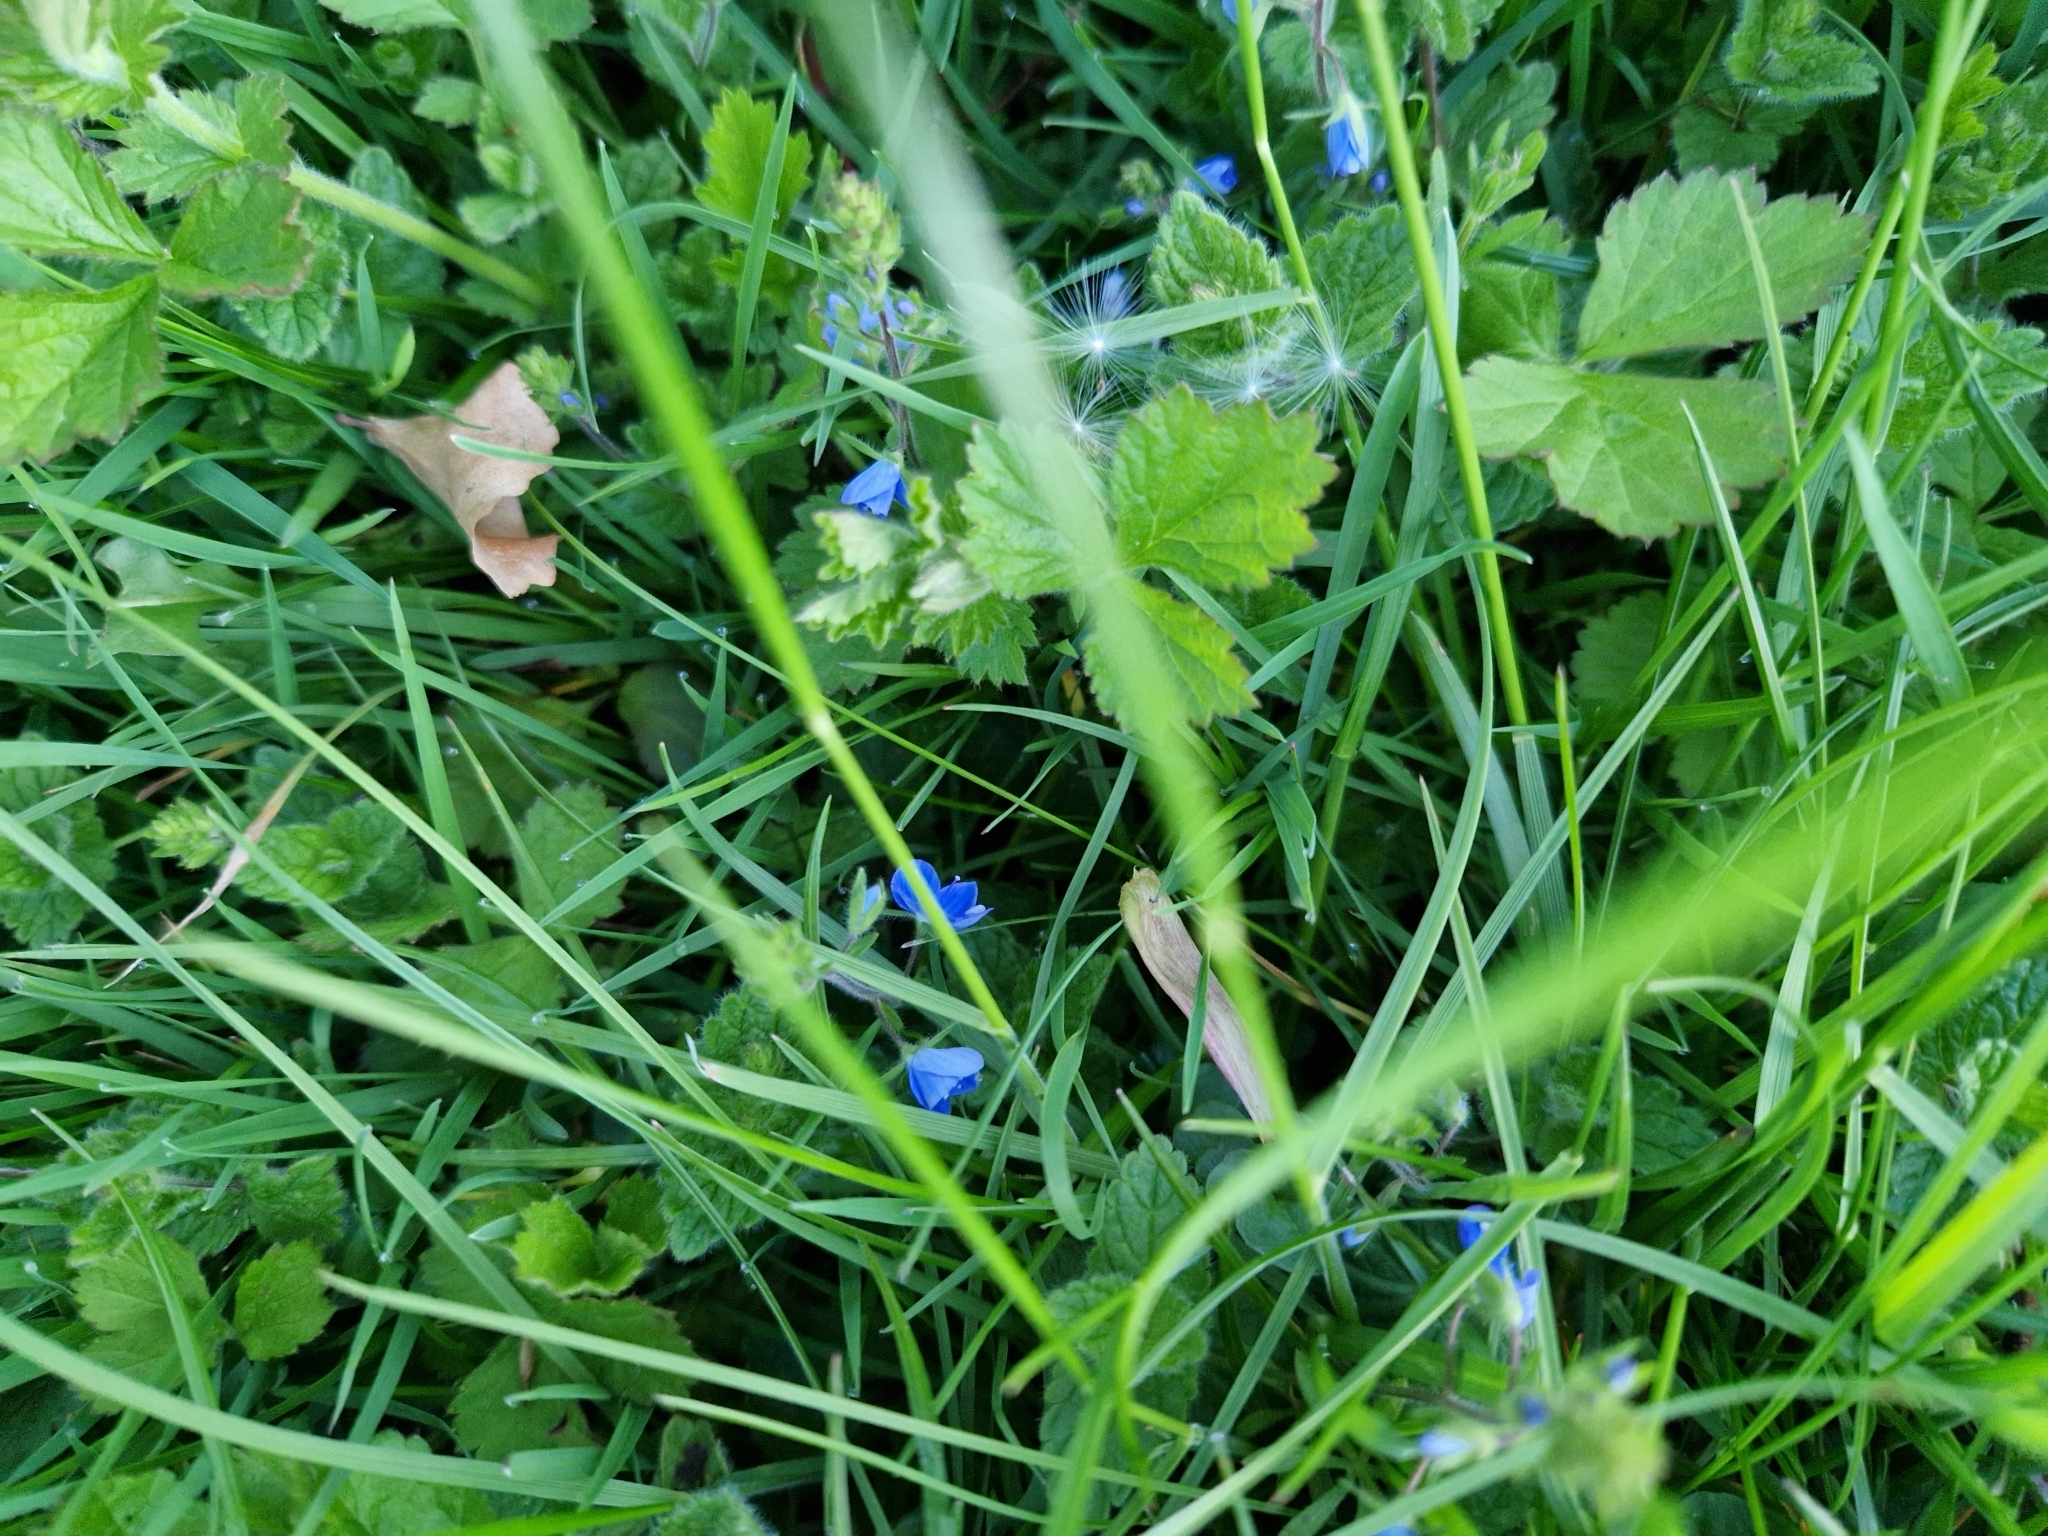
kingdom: Plantae
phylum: Tracheophyta
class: Magnoliopsida
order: Lamiales
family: Plantaginaceae
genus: Veronica
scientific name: Veronica chamaedrys
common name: Germander speedwell
